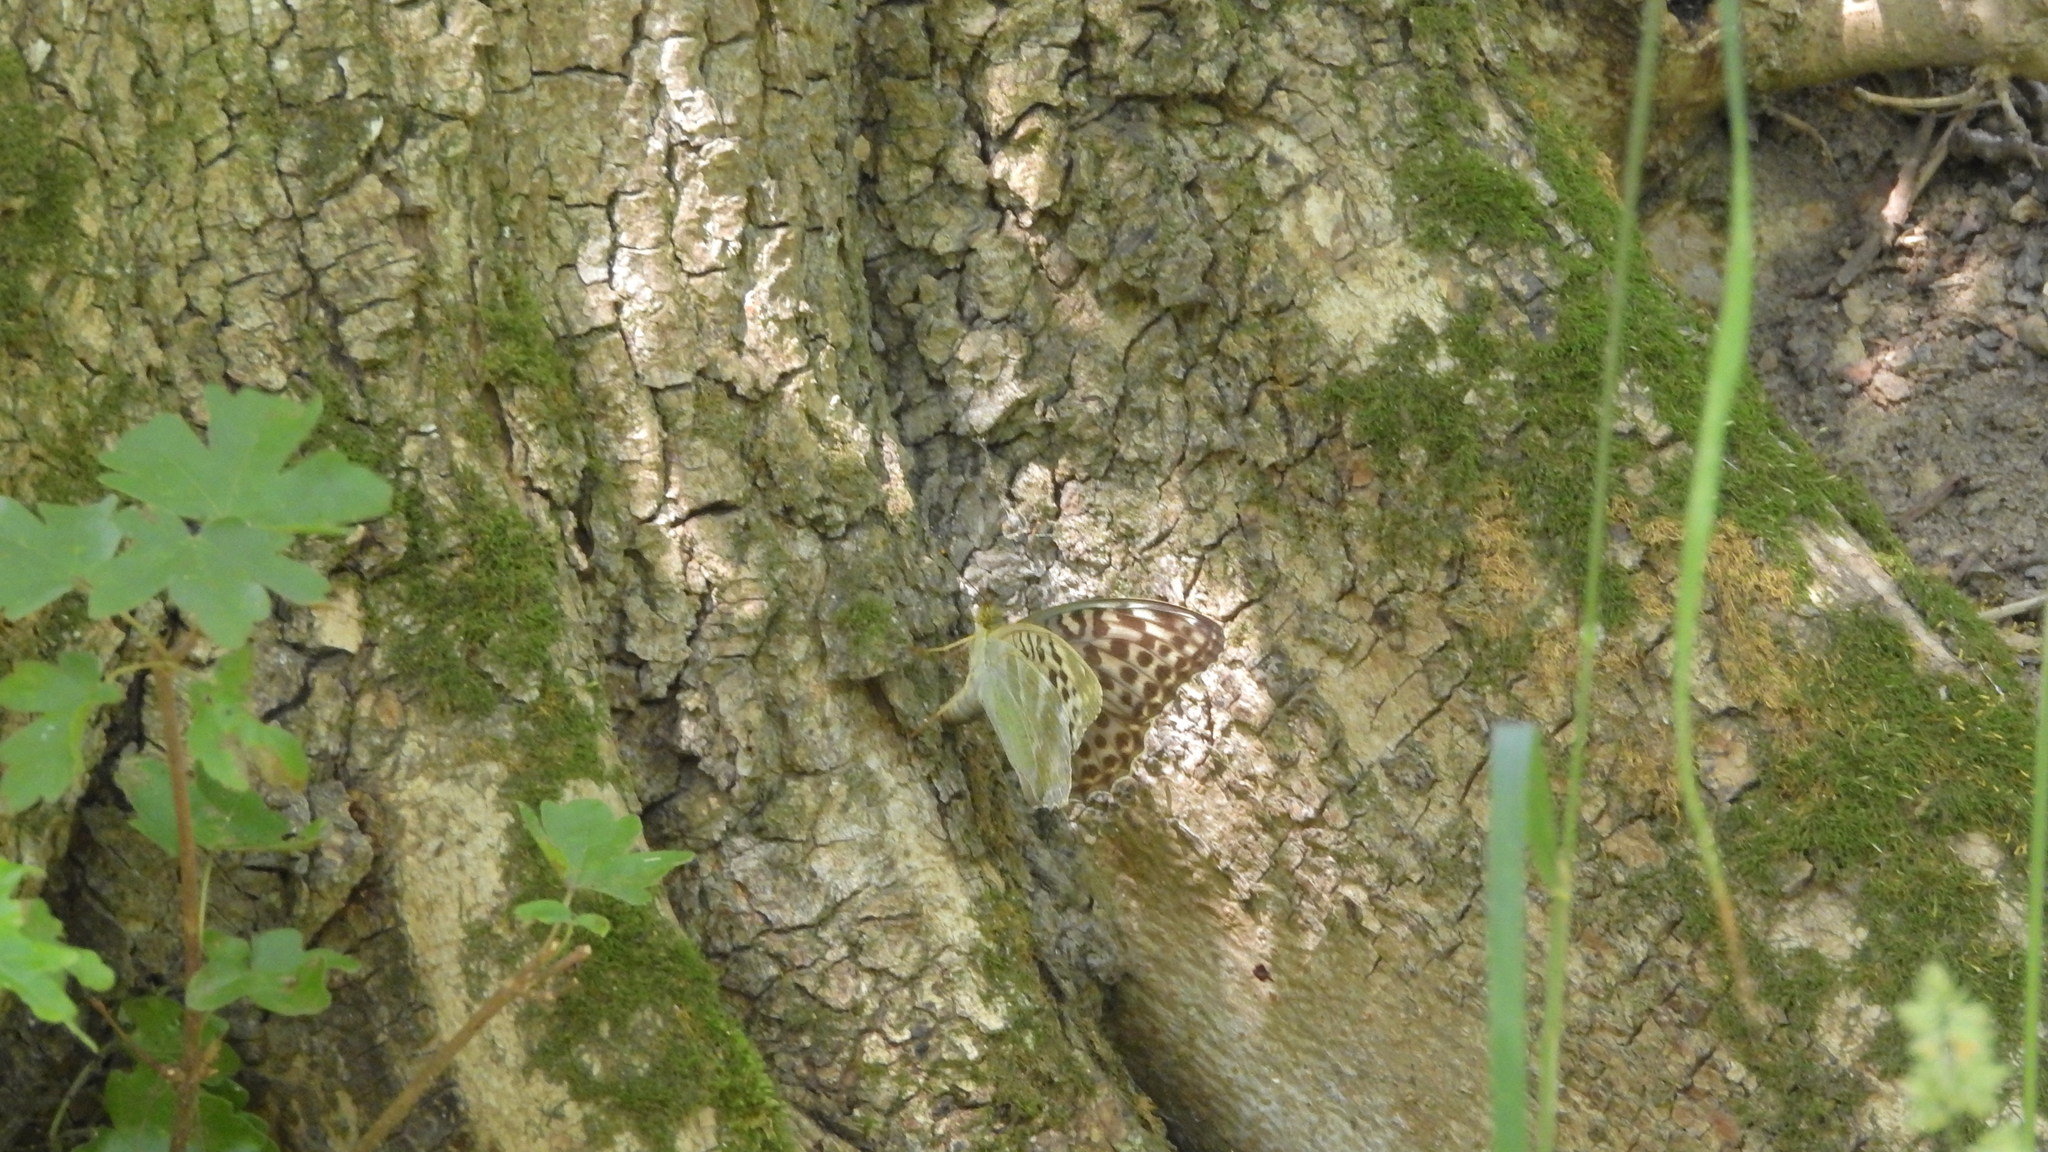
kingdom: Animalia
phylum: Arthropoda
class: Insecta
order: Lepidoptera
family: Nymphalidae
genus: Argynnis
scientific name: Argynnis paphia
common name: Silver-washed fritillary
